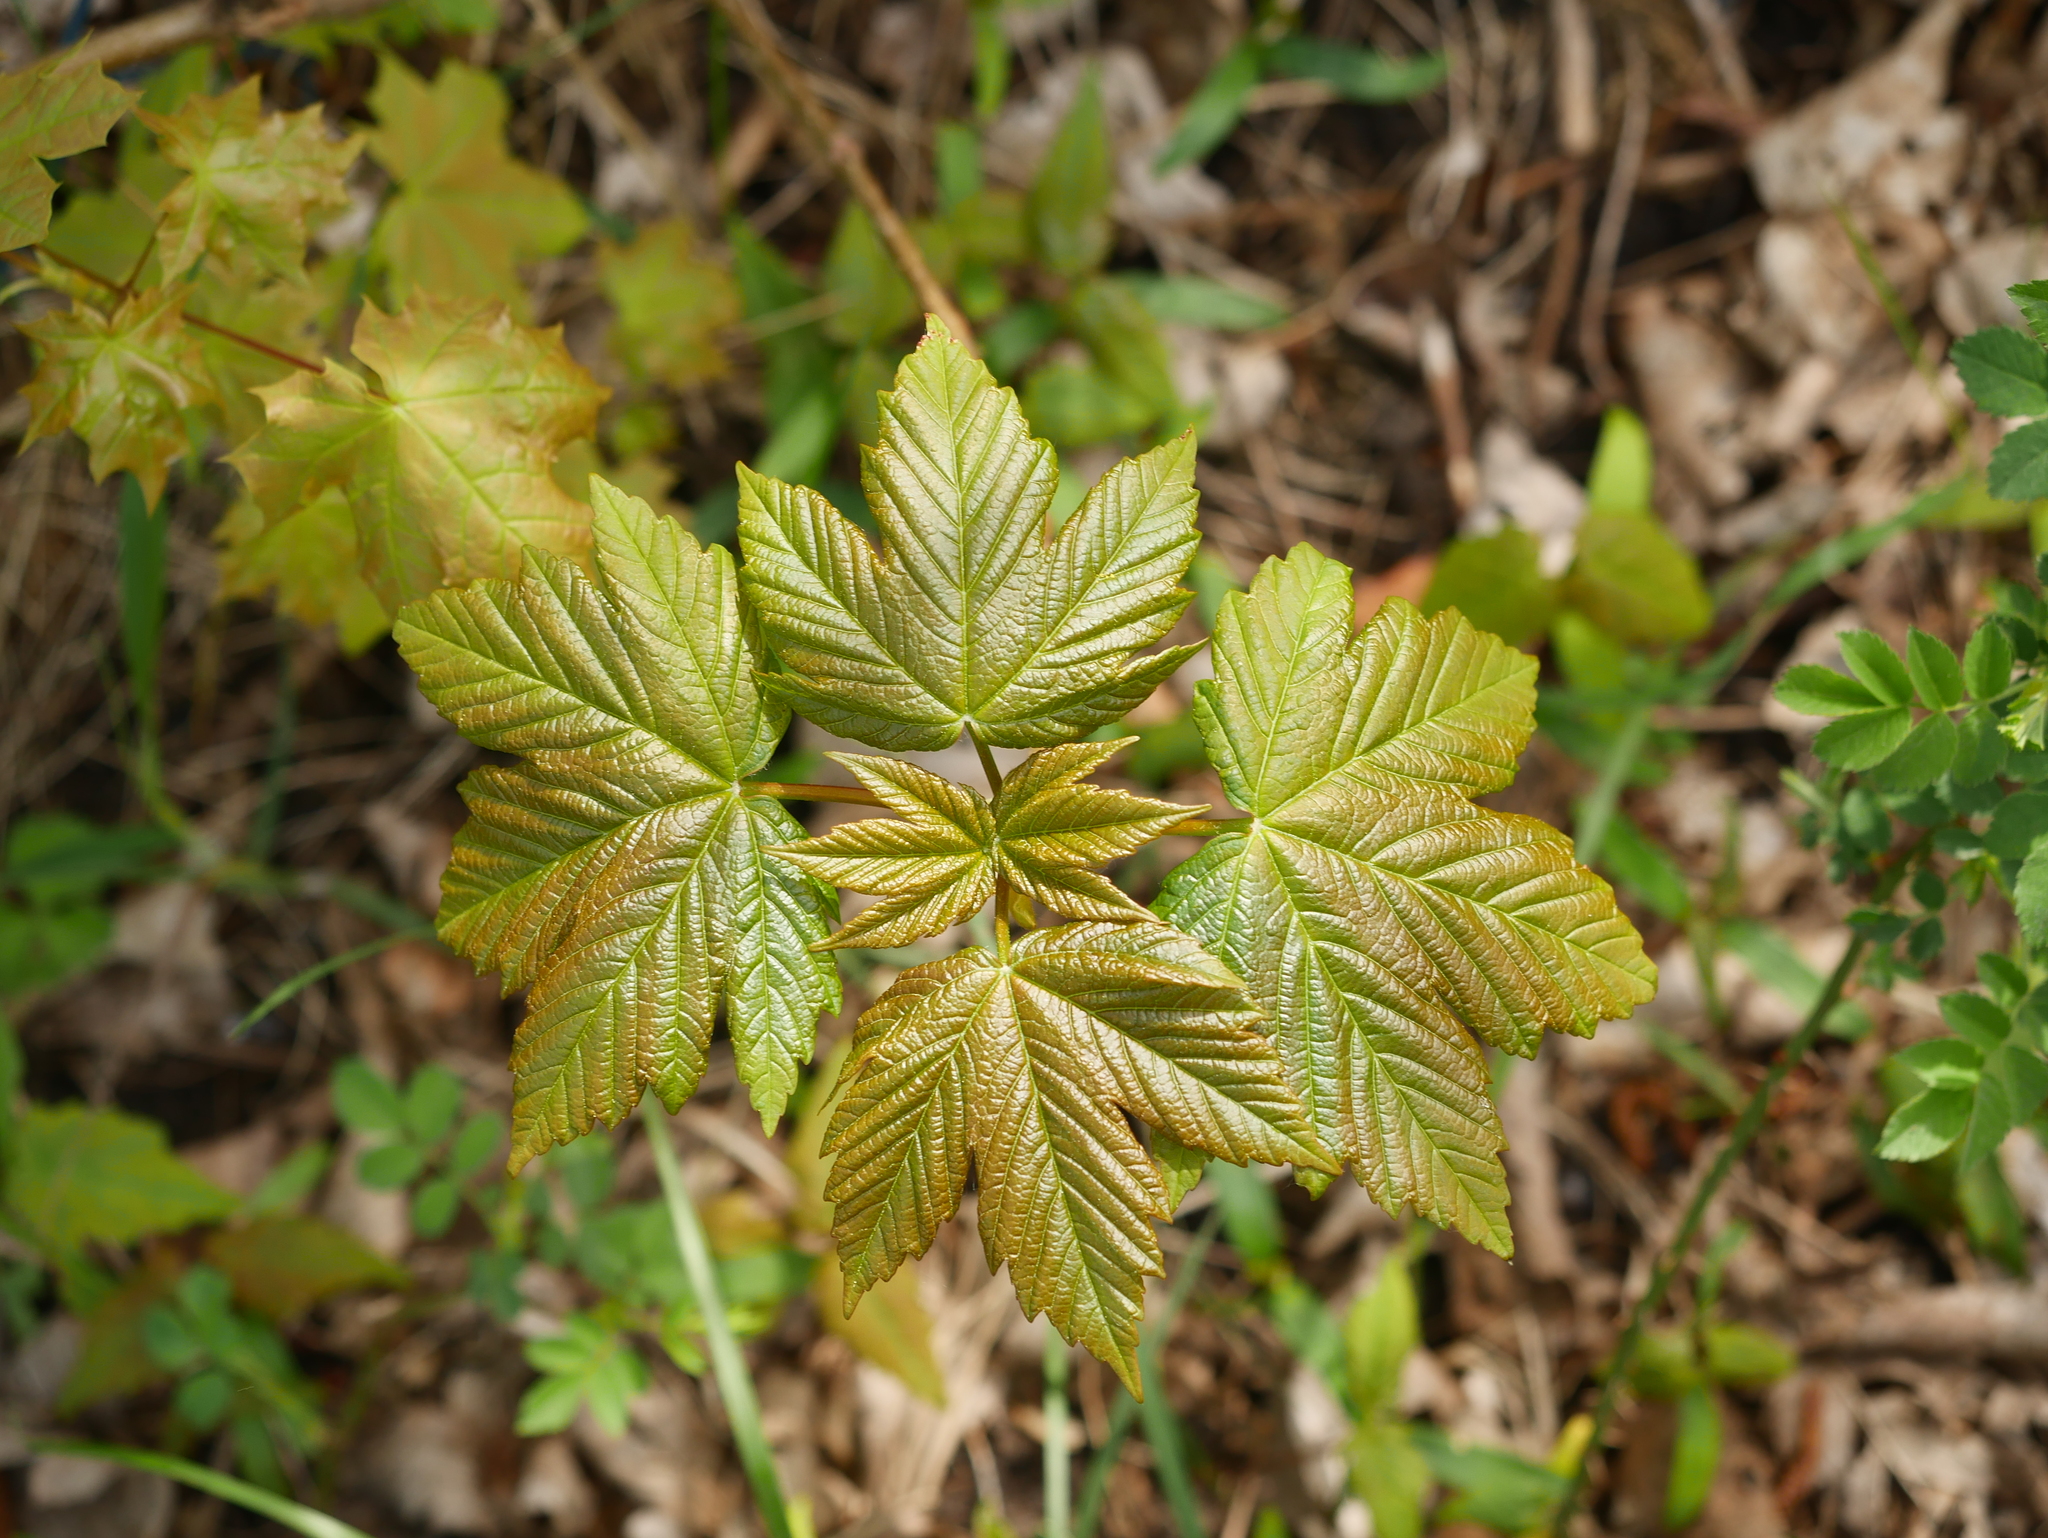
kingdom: Plantae
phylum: Tracheophyta
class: Magnoliopsida
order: Sapindales
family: Sapindaceae
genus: Acer
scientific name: Acer pseudoplatanus
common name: Sycamore
